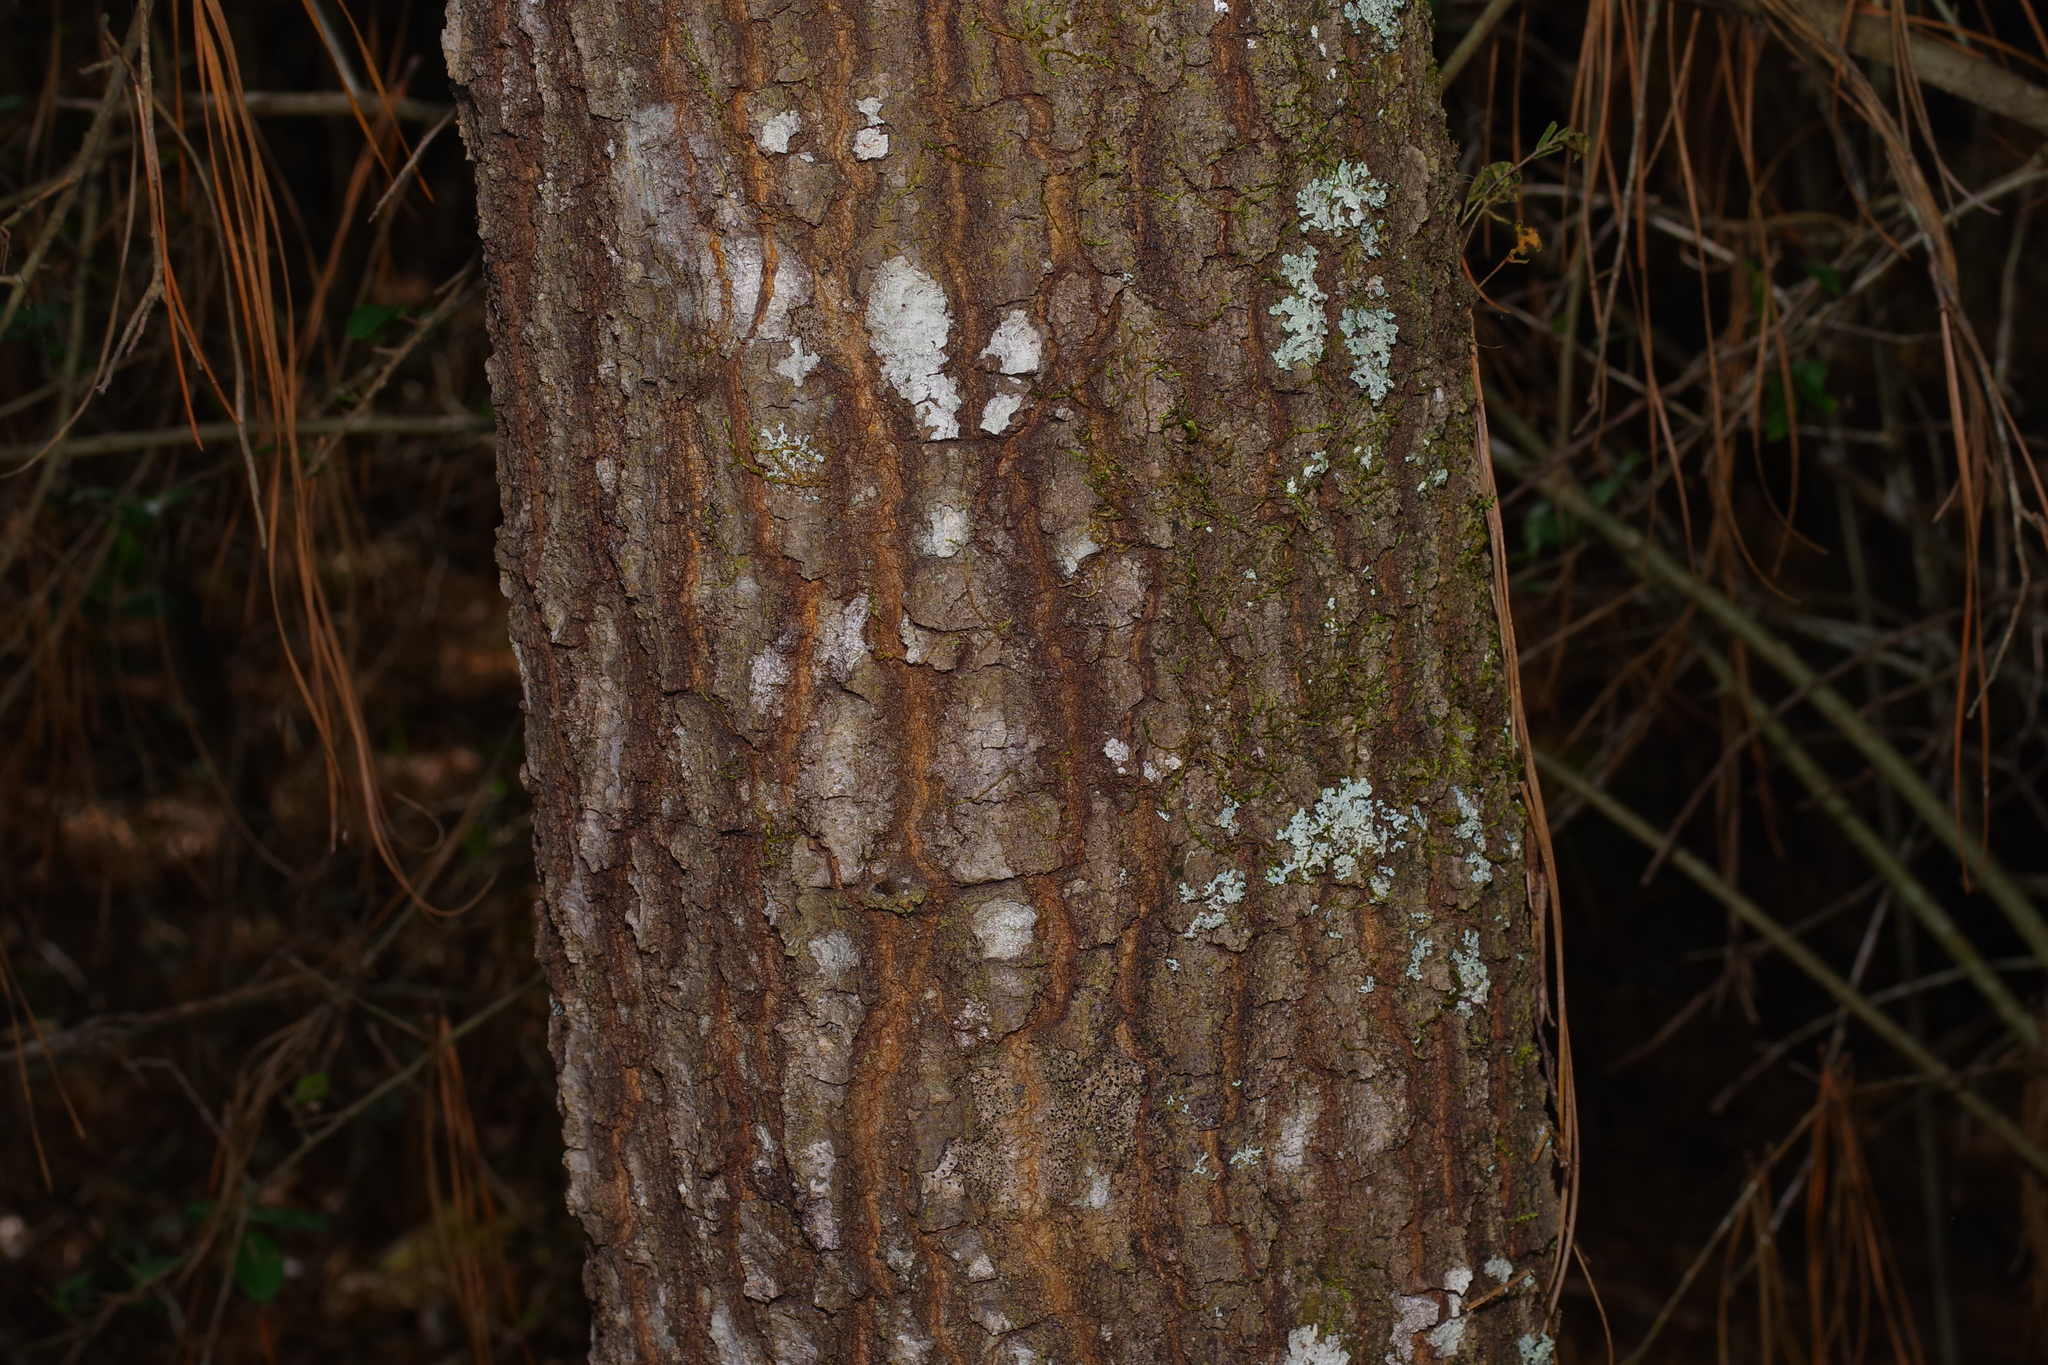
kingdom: Plantae
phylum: Tracheophyta
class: Magnoliopsida
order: Fagales
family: Fagaceae
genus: Quercus
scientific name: Quercus nigra
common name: Water oak
